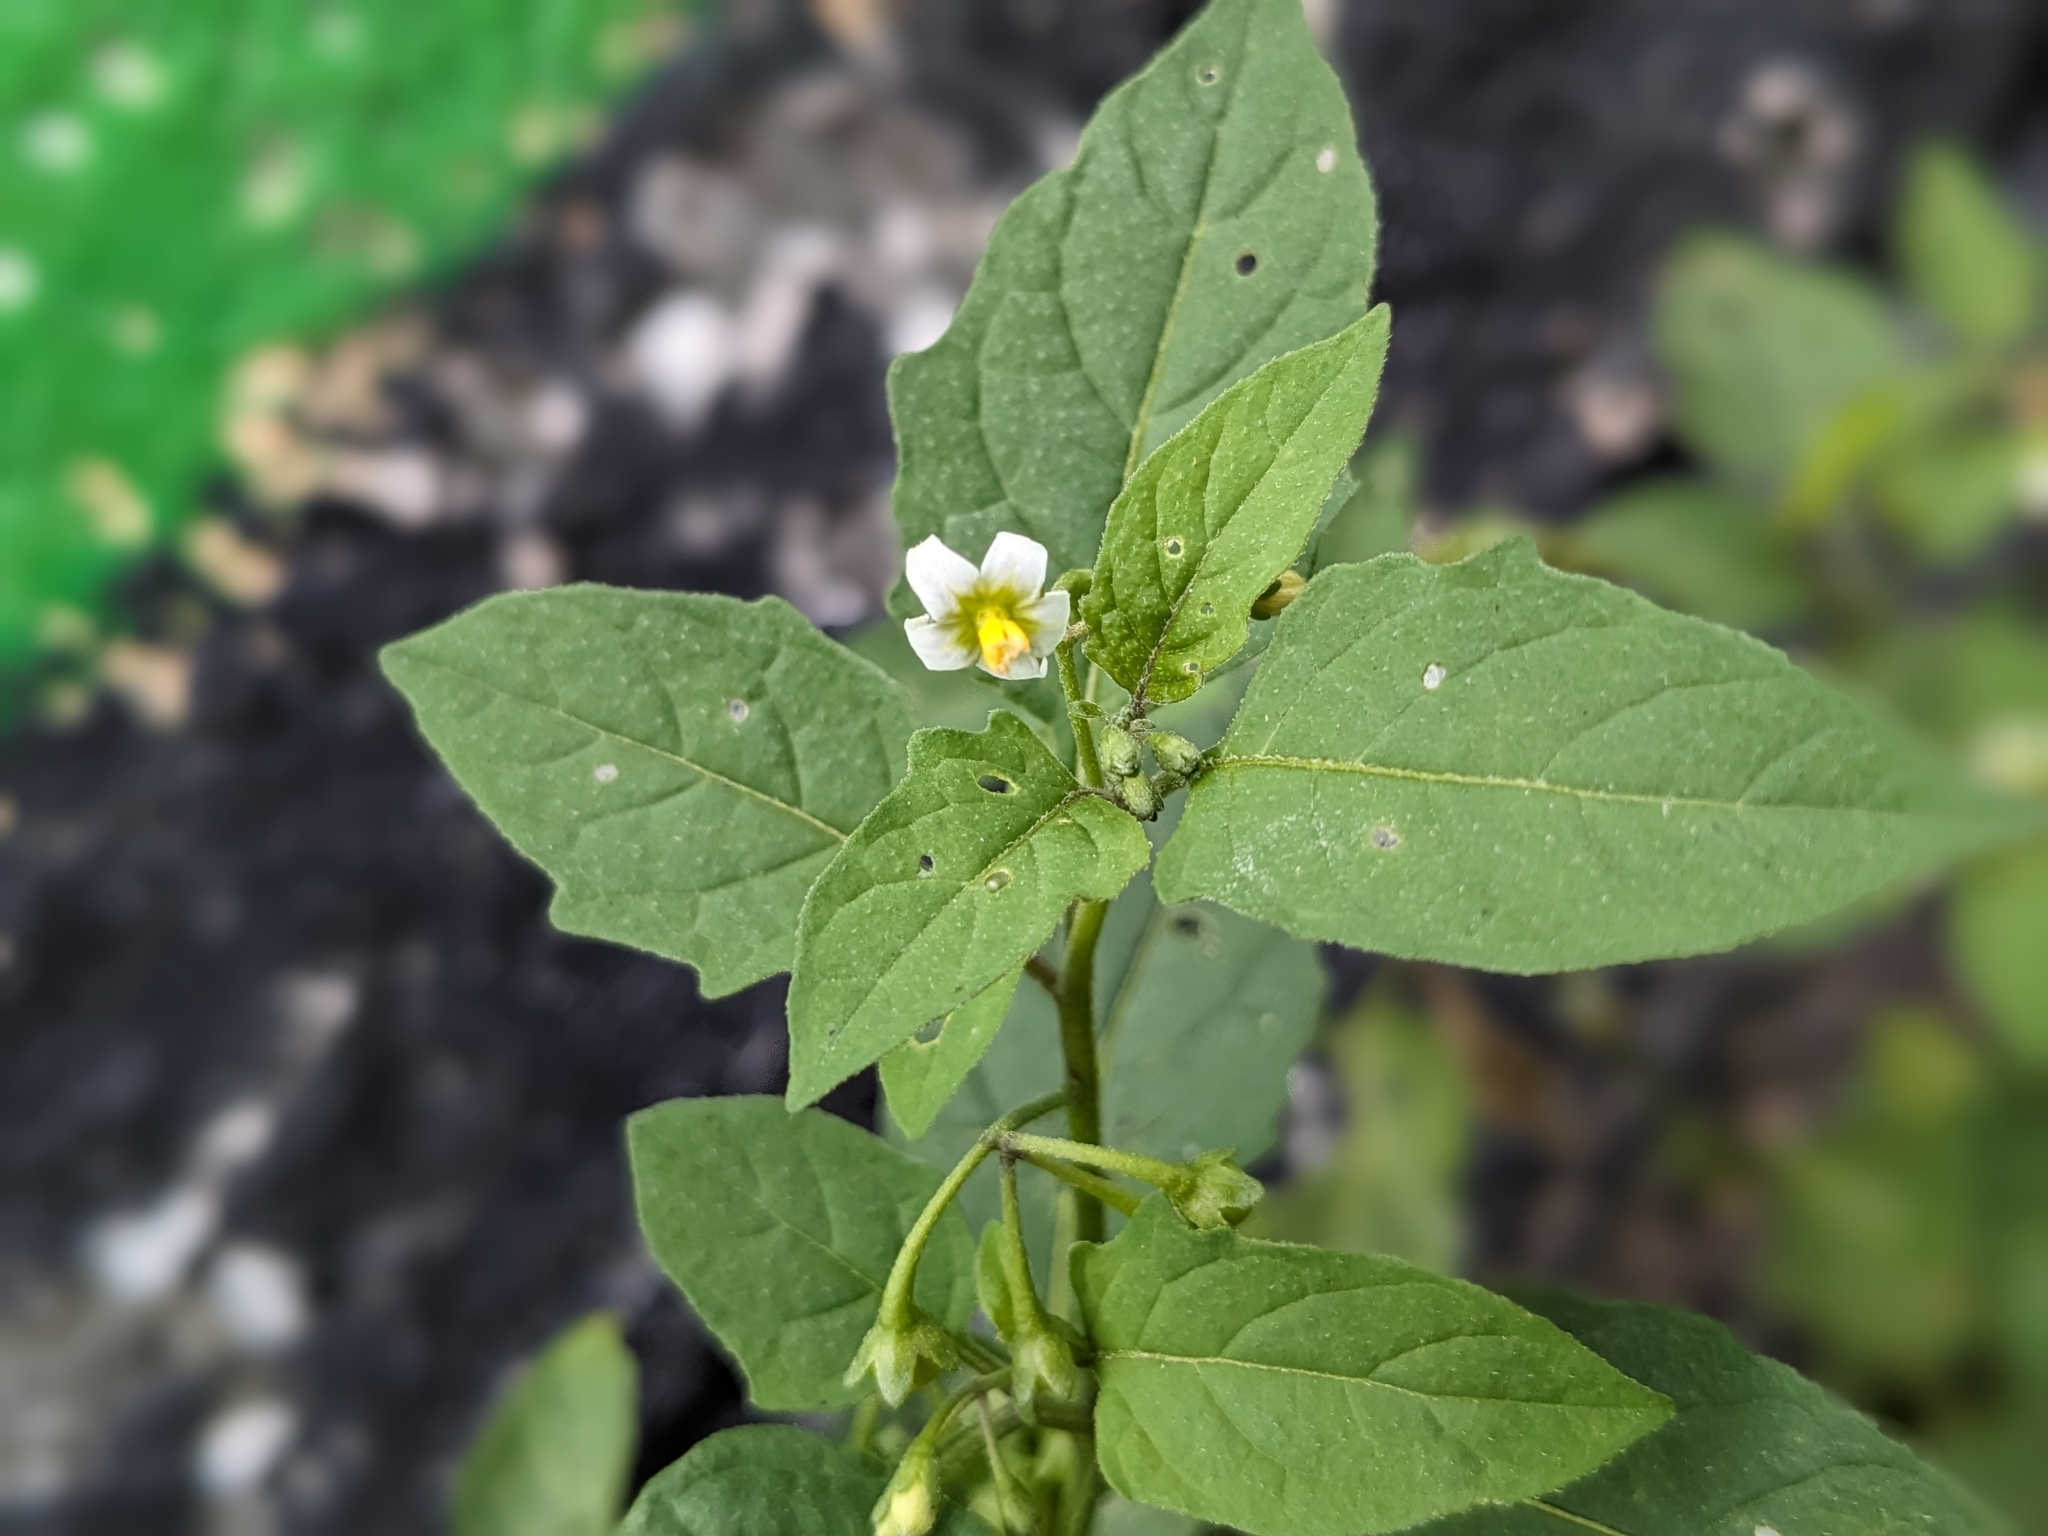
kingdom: Plantae
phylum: Tracheophyta
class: Magnoliopsida
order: Solanales
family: Solanaceae
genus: Solanum
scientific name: Solanum emulans
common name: Eastern black nightshade
